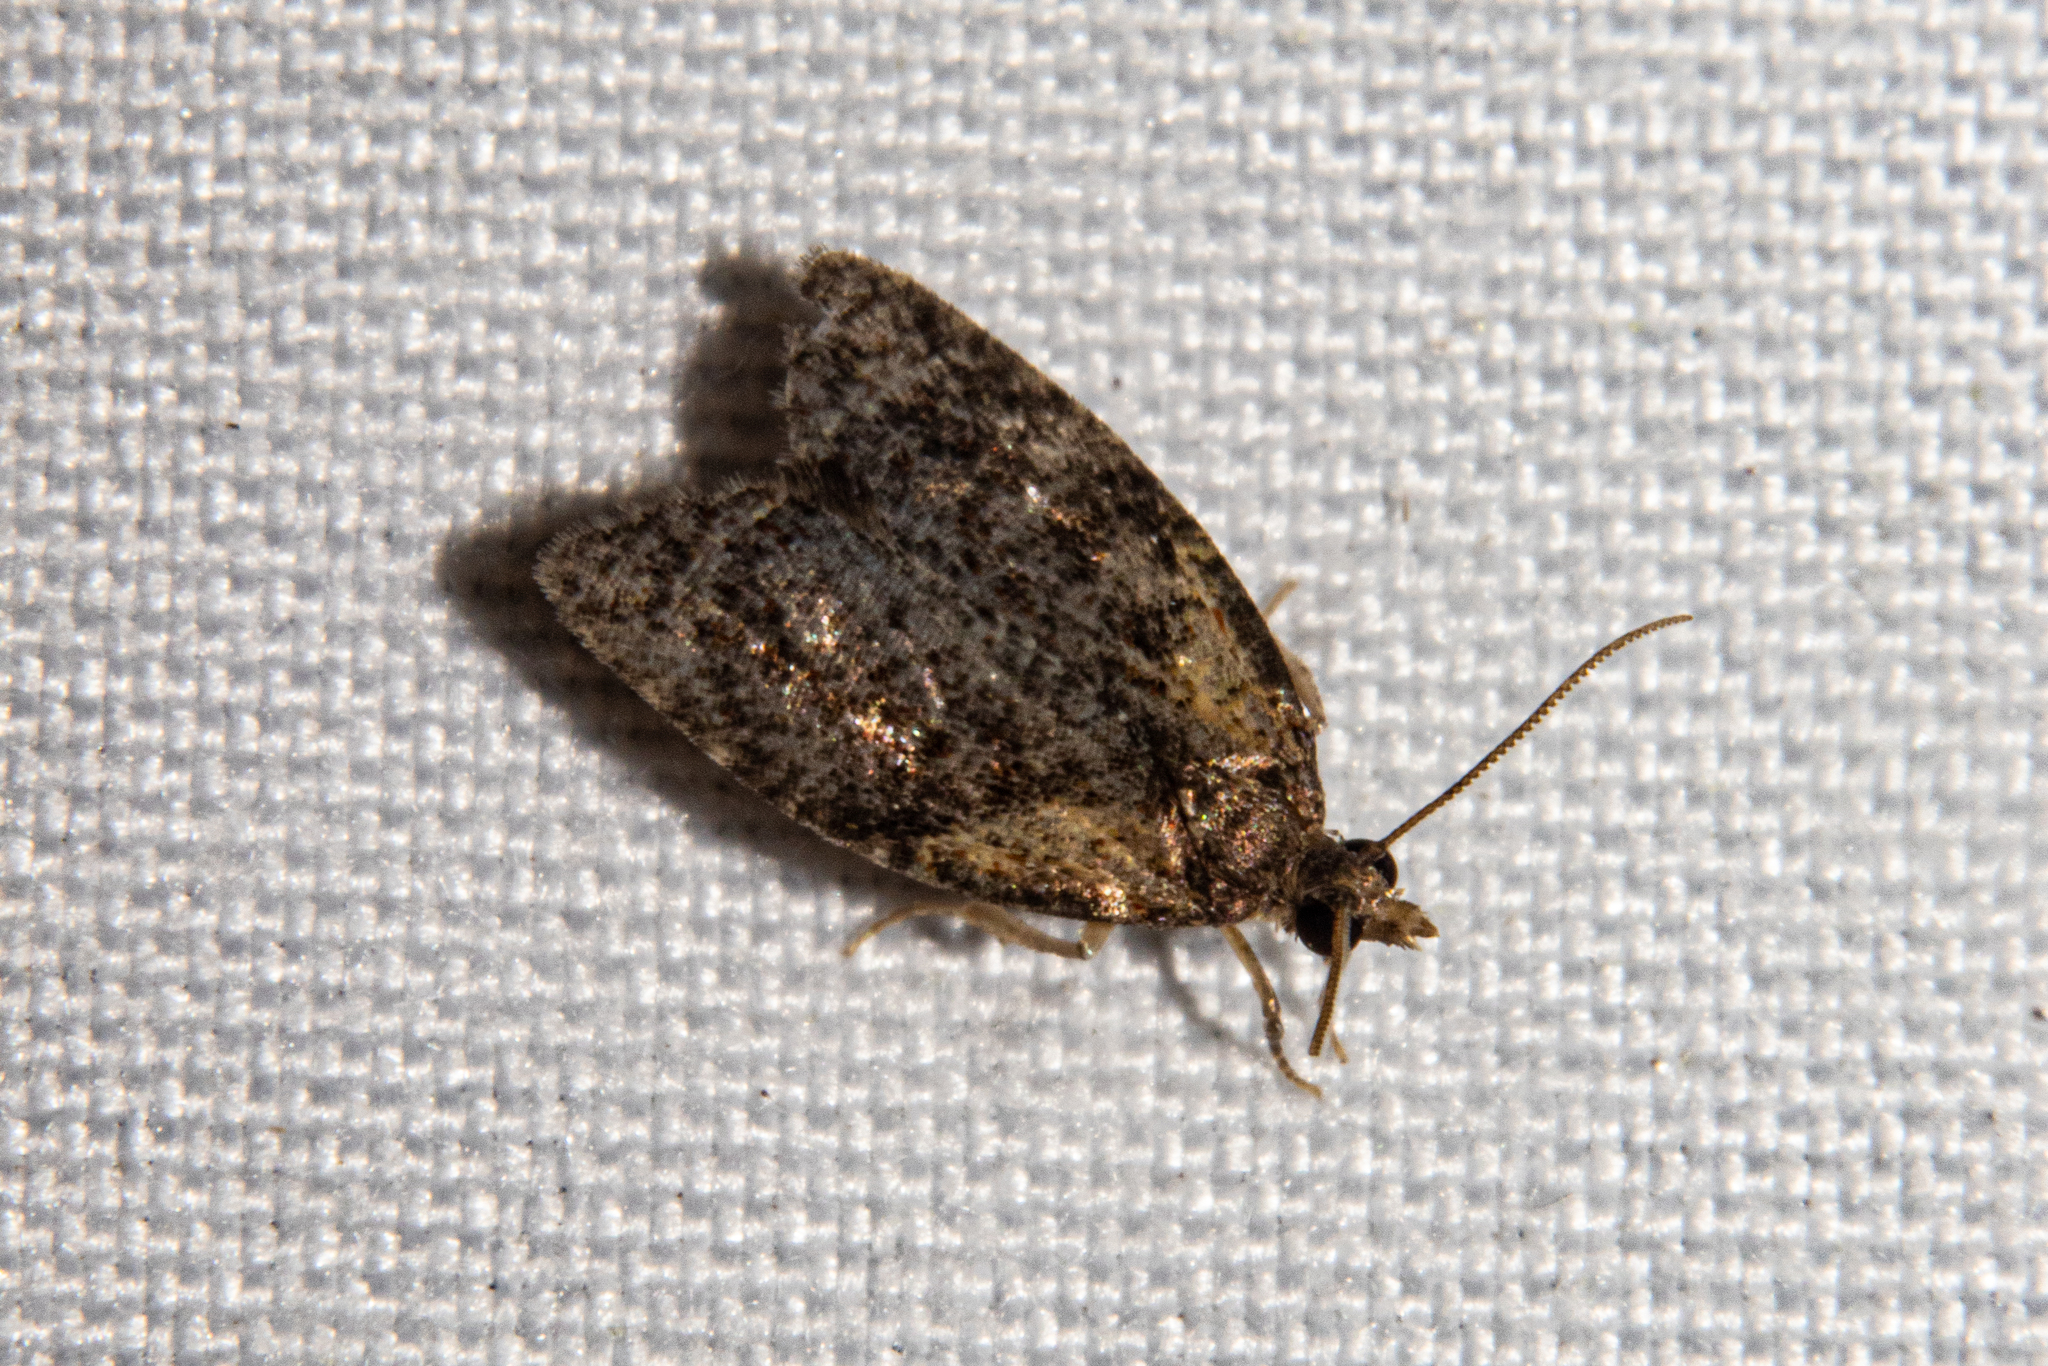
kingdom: Animalia
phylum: Arthropoda
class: Insecta
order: Lepidoptera
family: Tortricidae
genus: Capua
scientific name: Capua intractana
